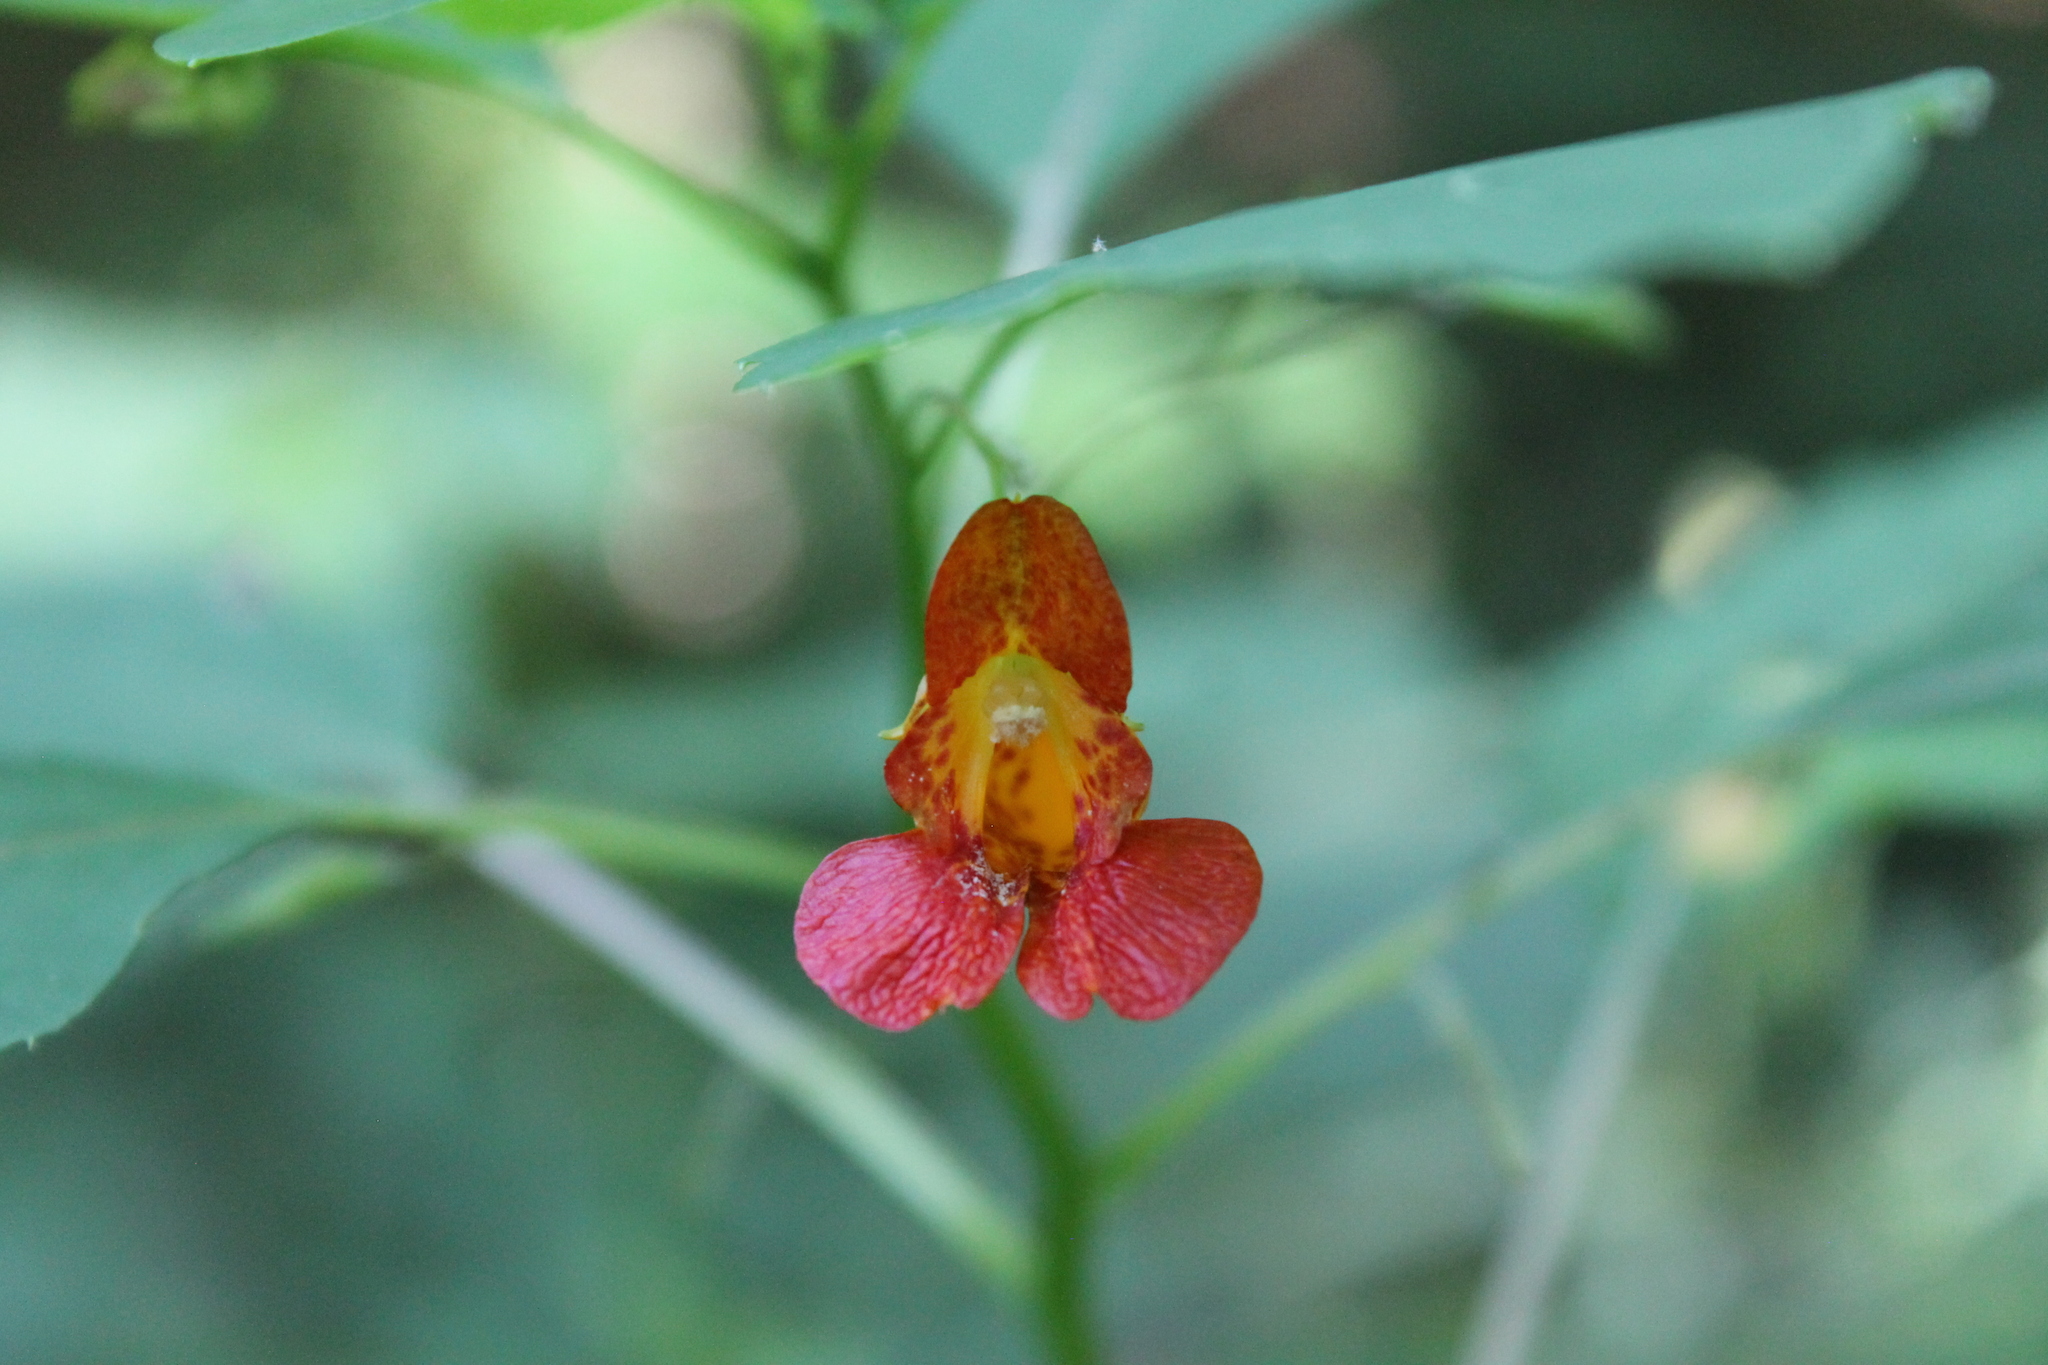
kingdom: Plantae
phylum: Tracheophyta
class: Magnoliopsida
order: Ericales
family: Balsaminaceae
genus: Impatiens
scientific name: Impatiens capensis
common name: Orange balsam
